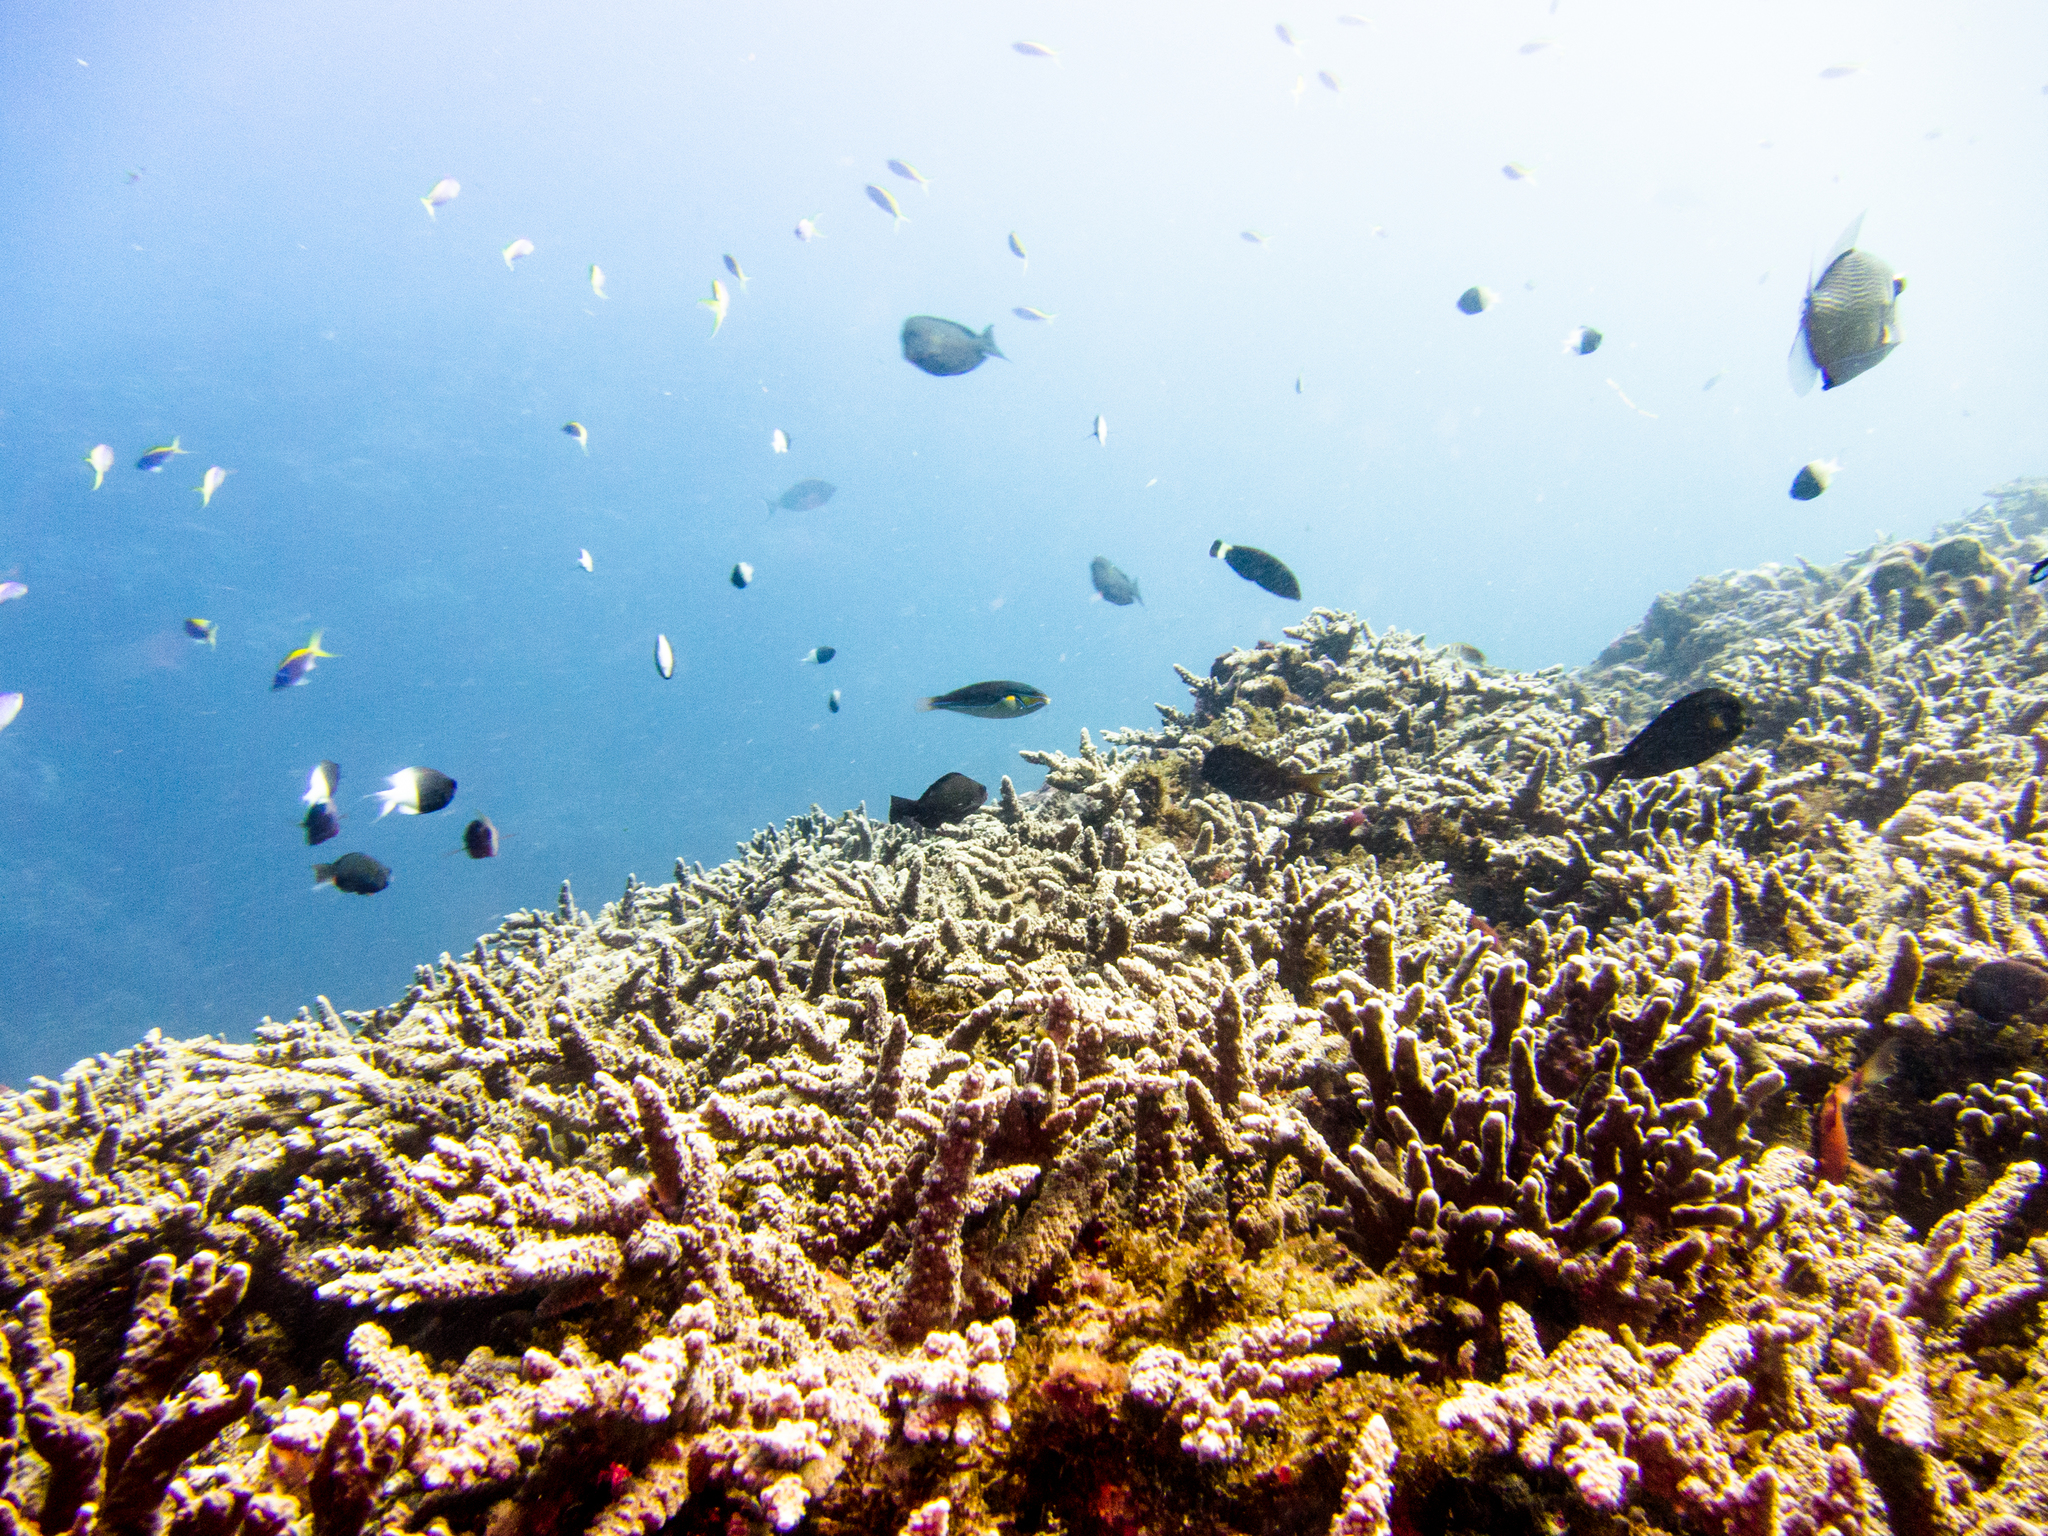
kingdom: Animalia
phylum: Chordata
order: Perciformes
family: Labridae
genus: Stethojulis
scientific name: Stethojulis albovittata
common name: Bluelined wrasse
